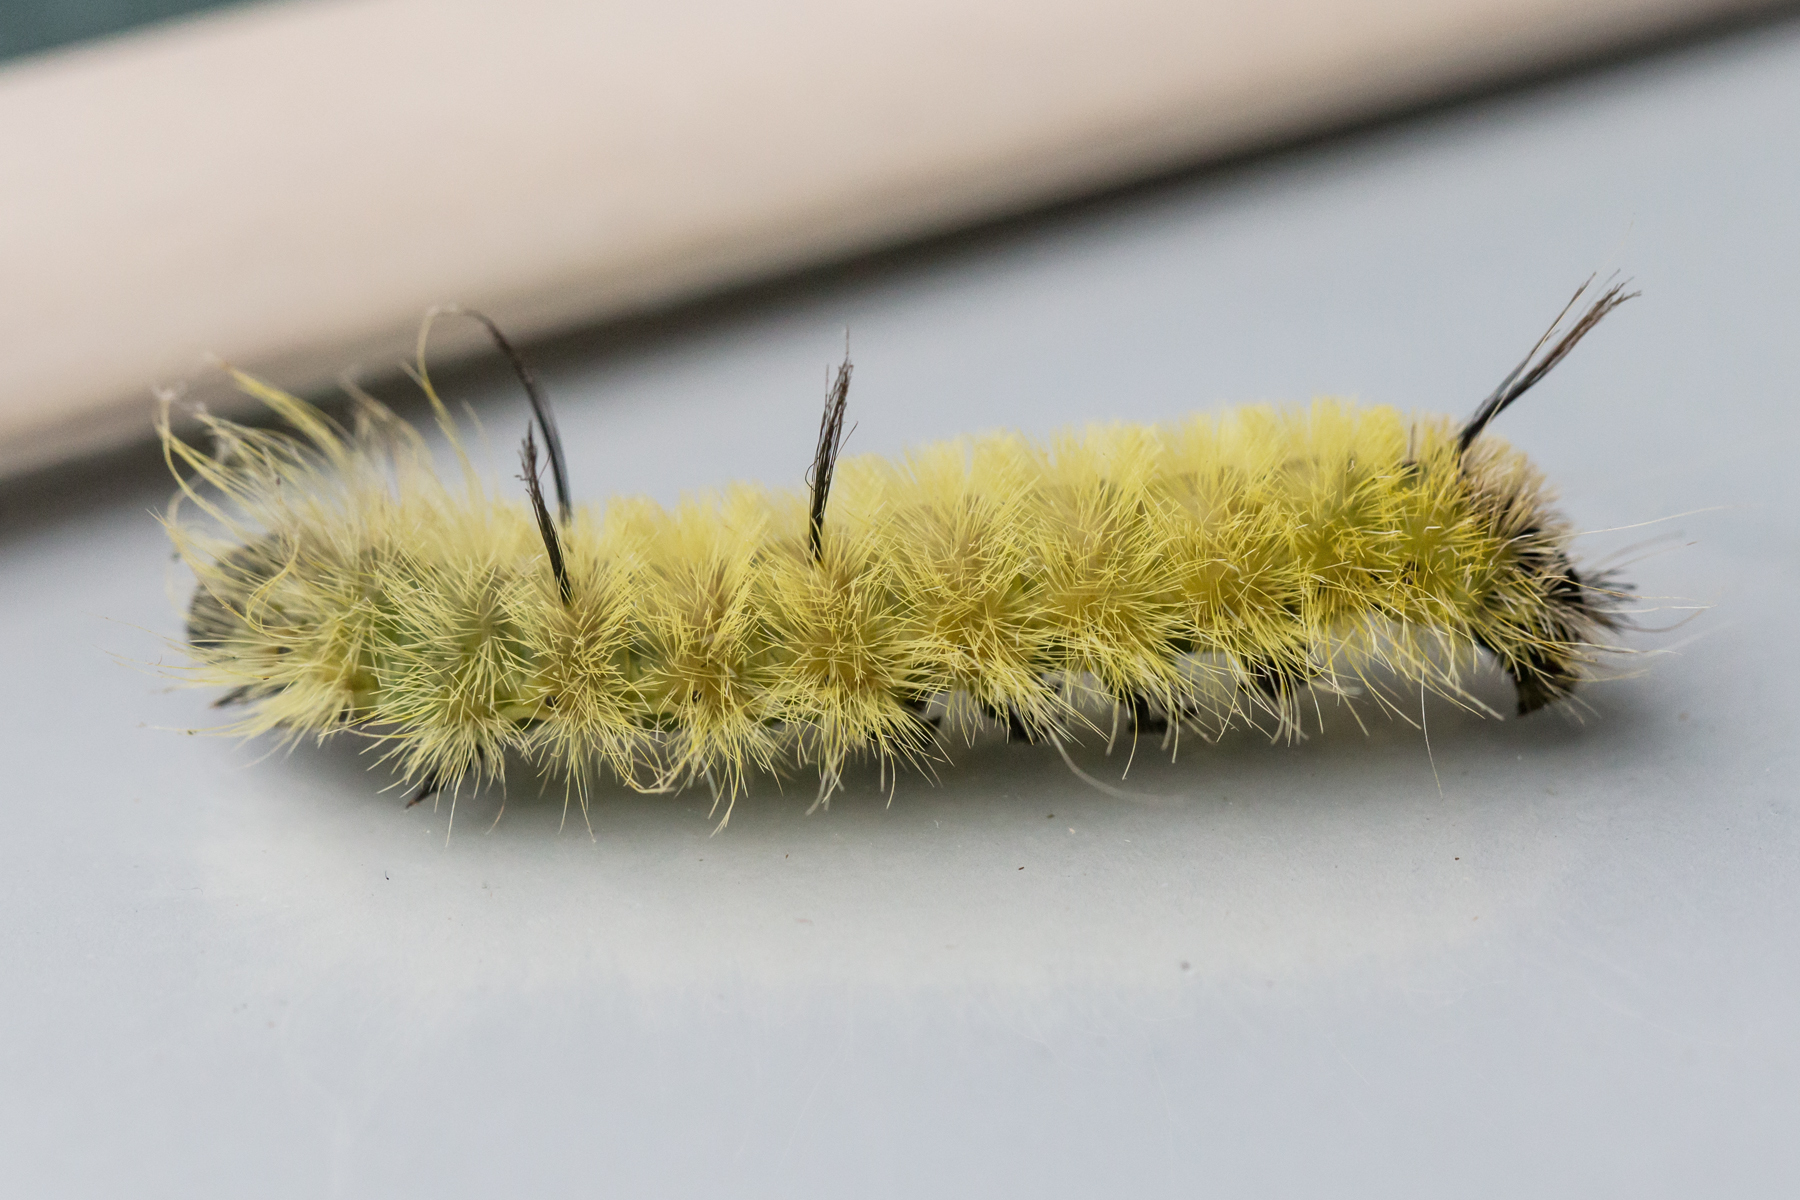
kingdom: Animalia
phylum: Arthropoda
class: Insecta
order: Lepidoptera
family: Noctuidae
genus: Acronicta
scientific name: Acronicta americana
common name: American dagger
